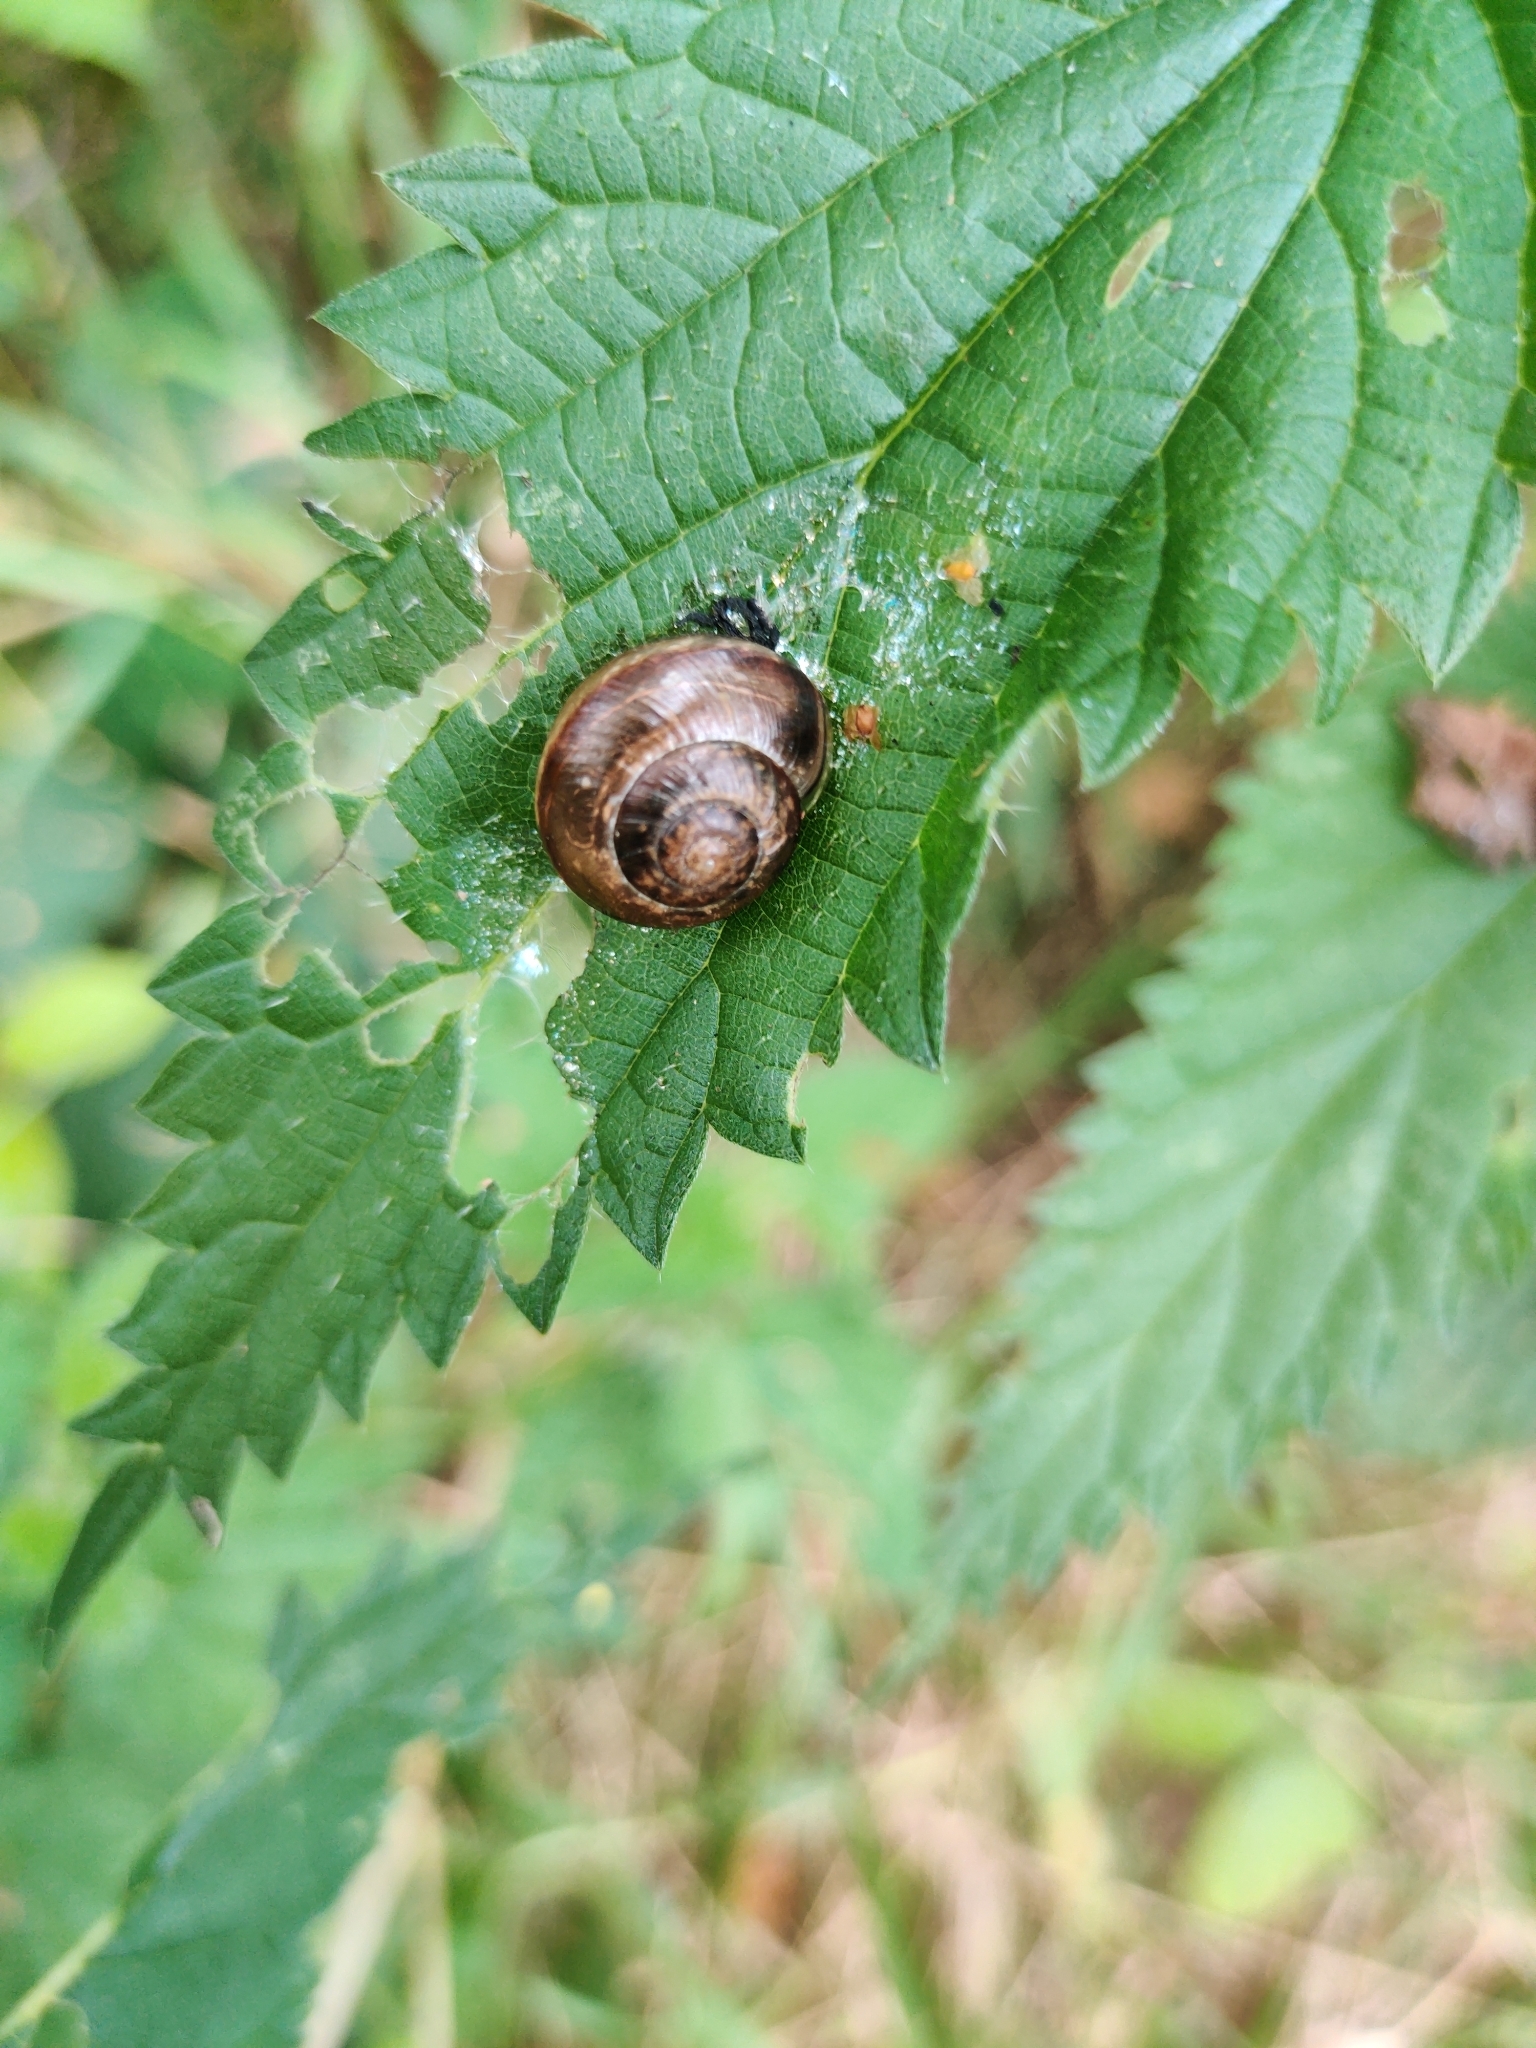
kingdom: Animalia
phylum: Mollusca
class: Gastropoda
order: Stylommatophora
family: Helicidae
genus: Arianta
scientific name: Arianta arbustorum
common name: Copse snail
